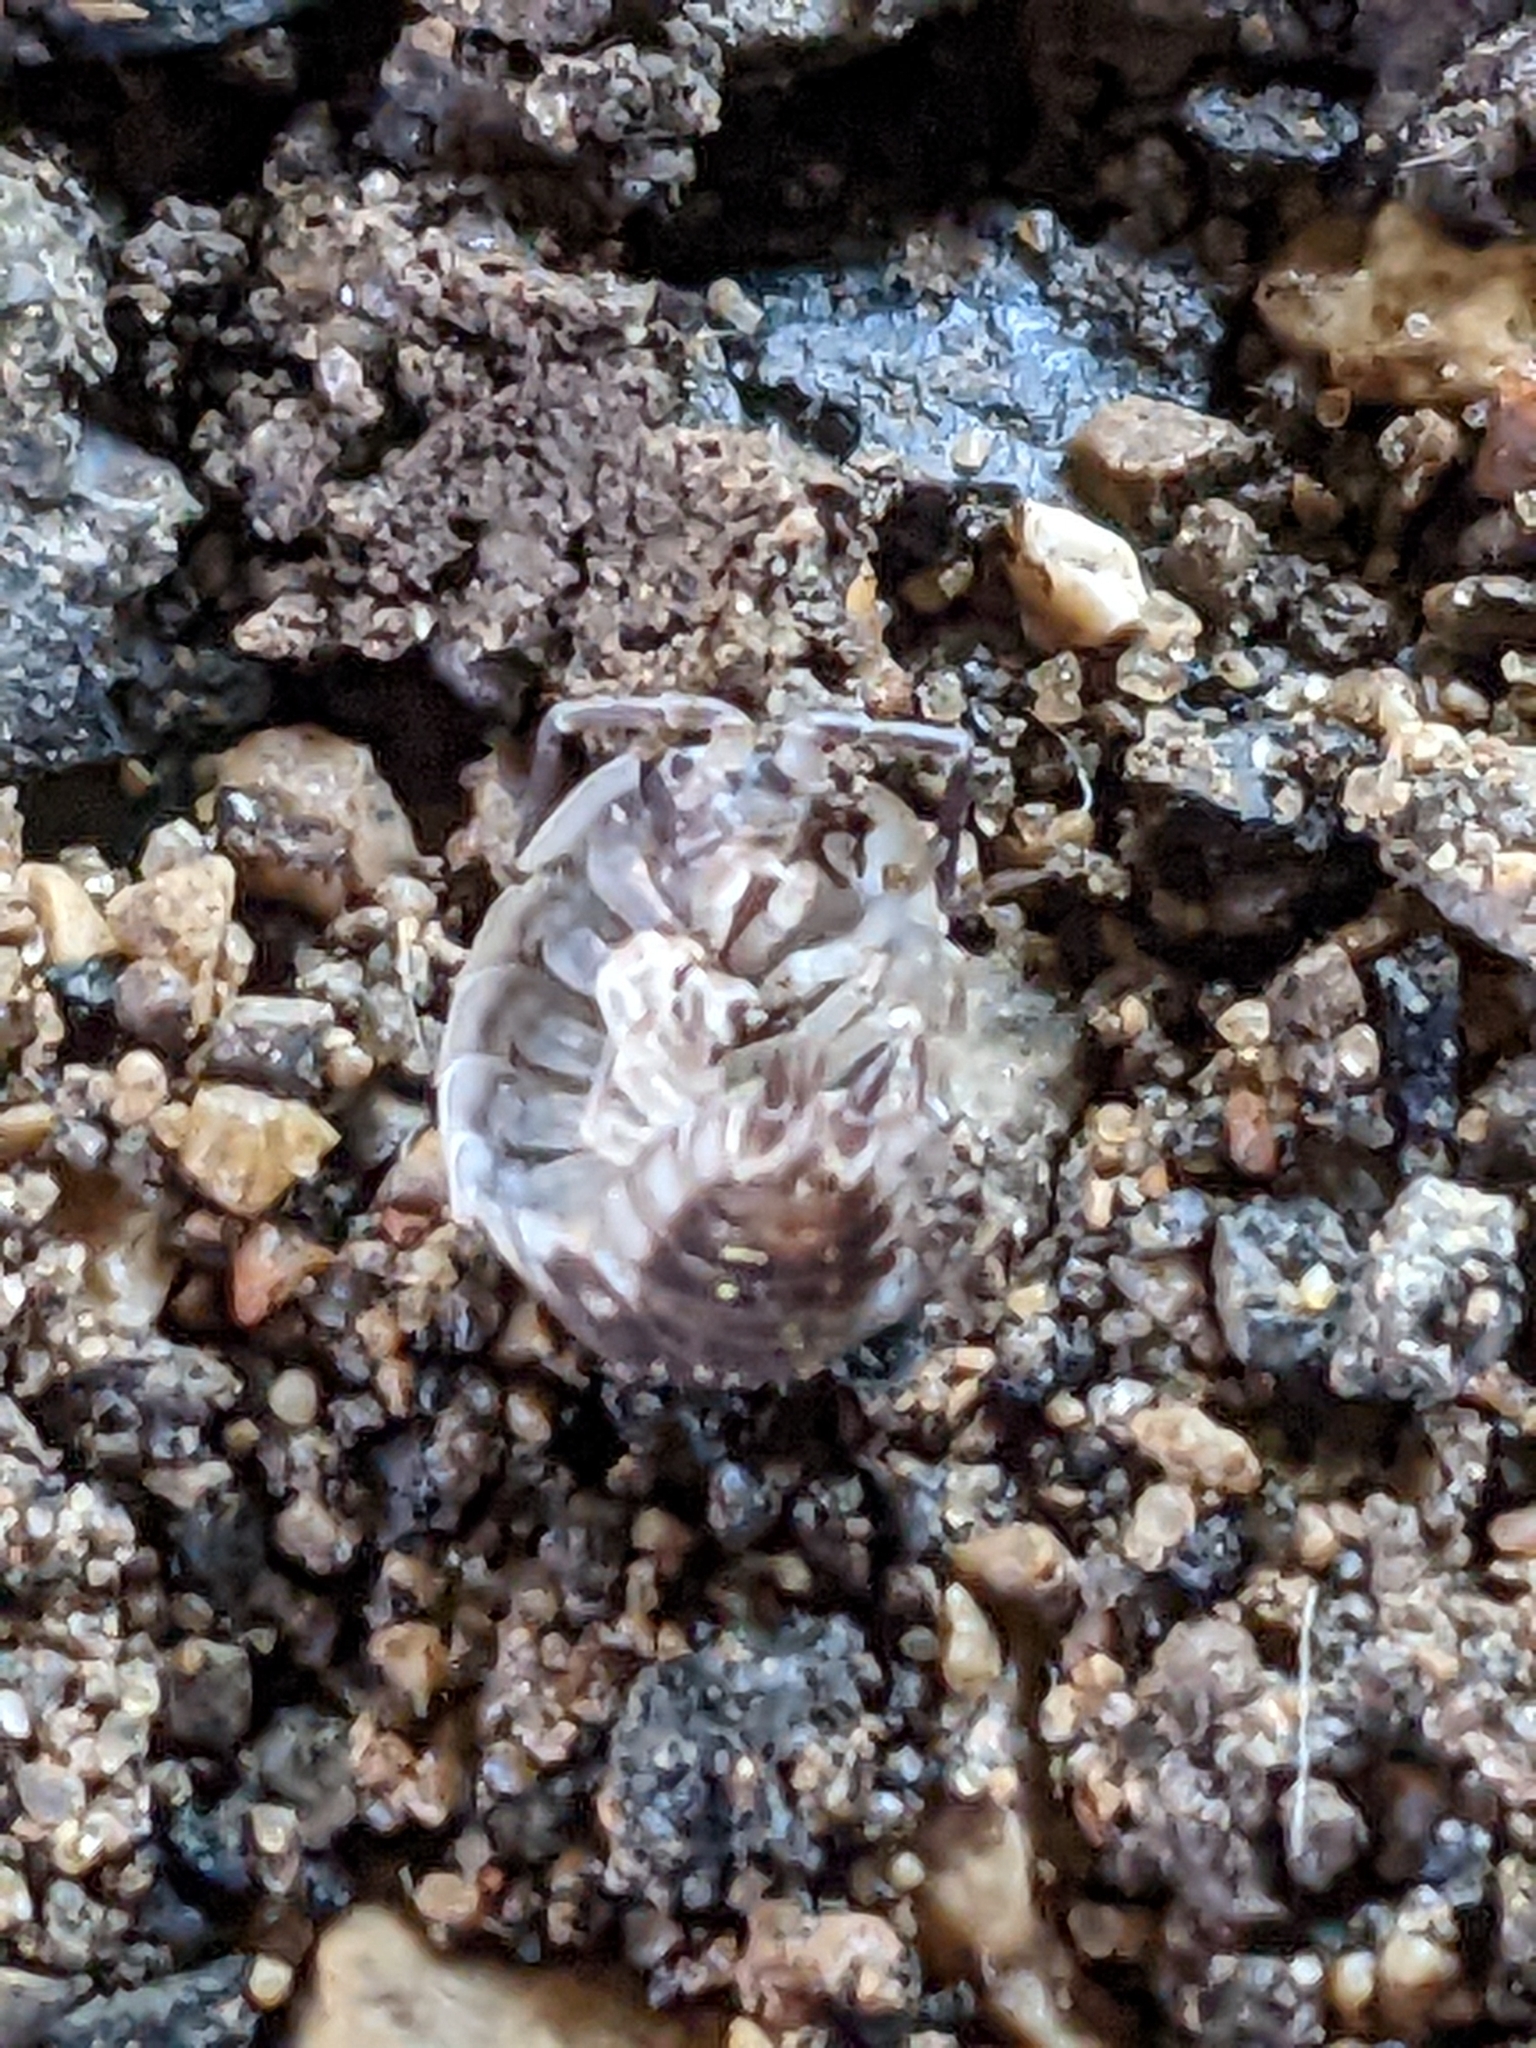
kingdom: Animalia
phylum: Arthropoda
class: Malacostraca
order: Isopoda
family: Oniscidae
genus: Oniscus
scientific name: Oniscus asellus
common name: Common shiny woodlouse
